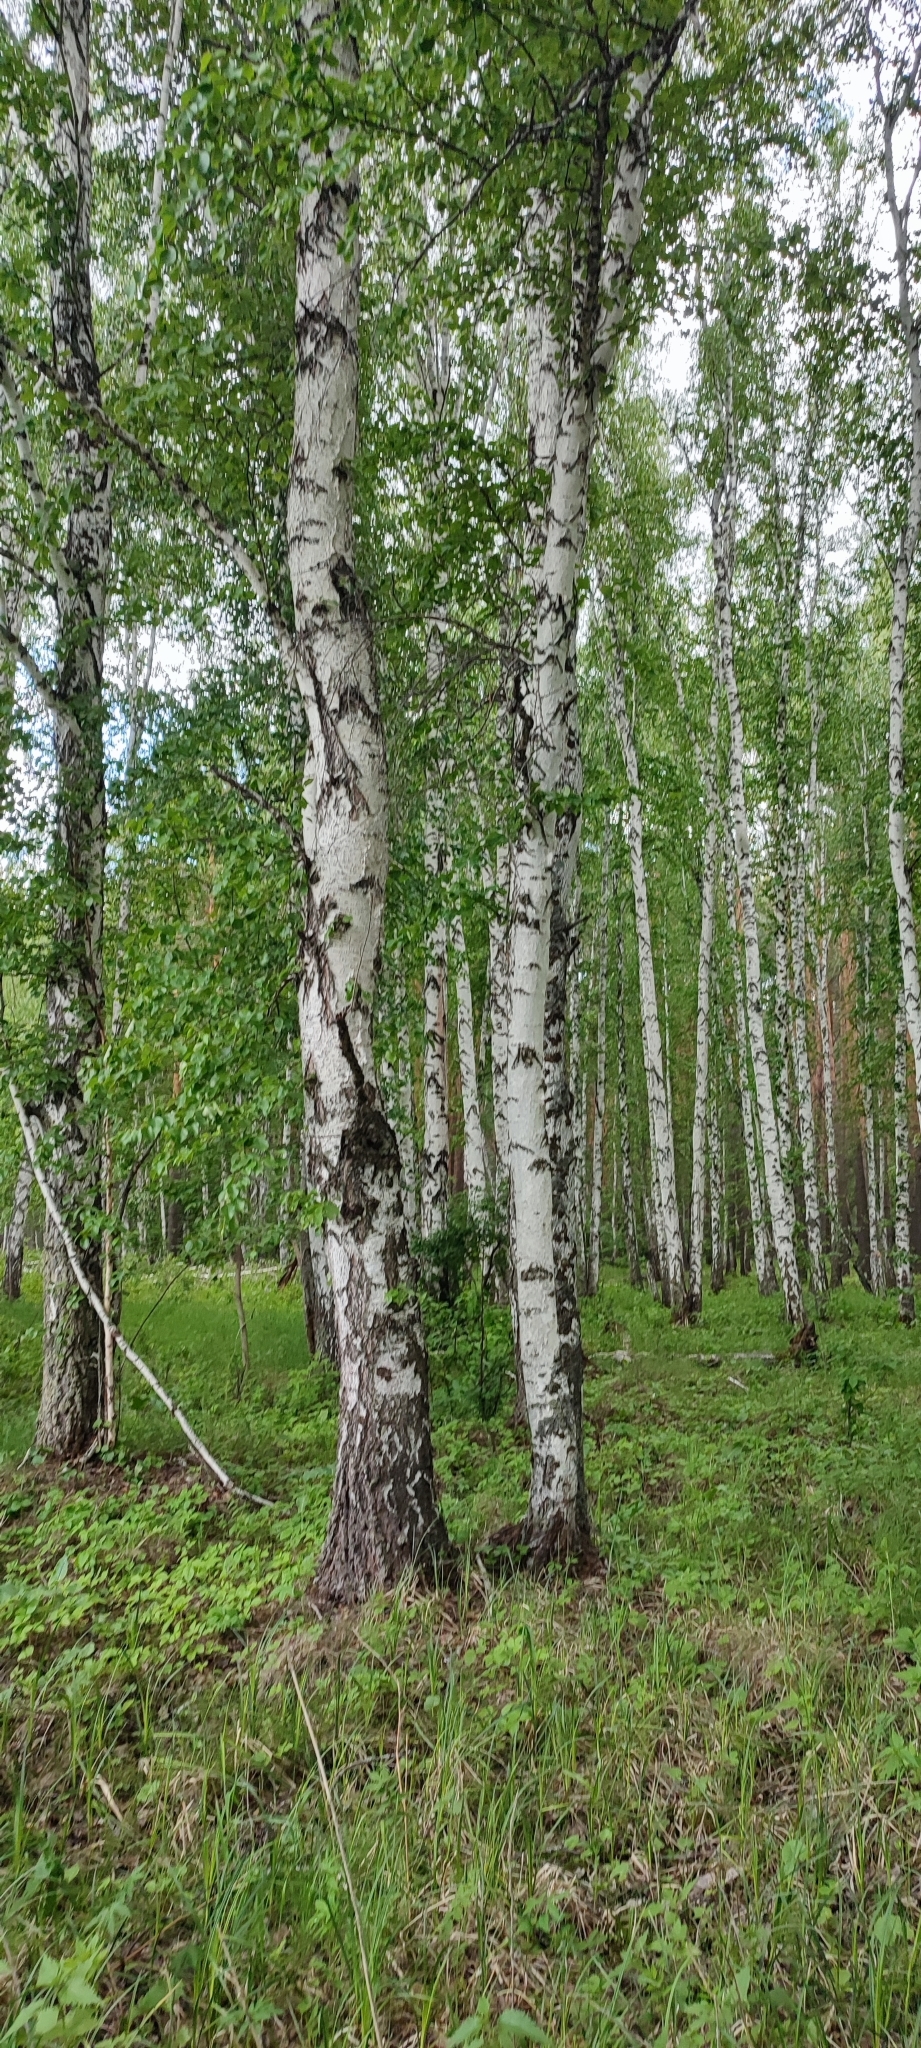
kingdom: Plantae
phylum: Tracheophyta
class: Magnoliopsida
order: Fagales
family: Betulaceae
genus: Betula
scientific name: Betula pendula
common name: Silver birch
